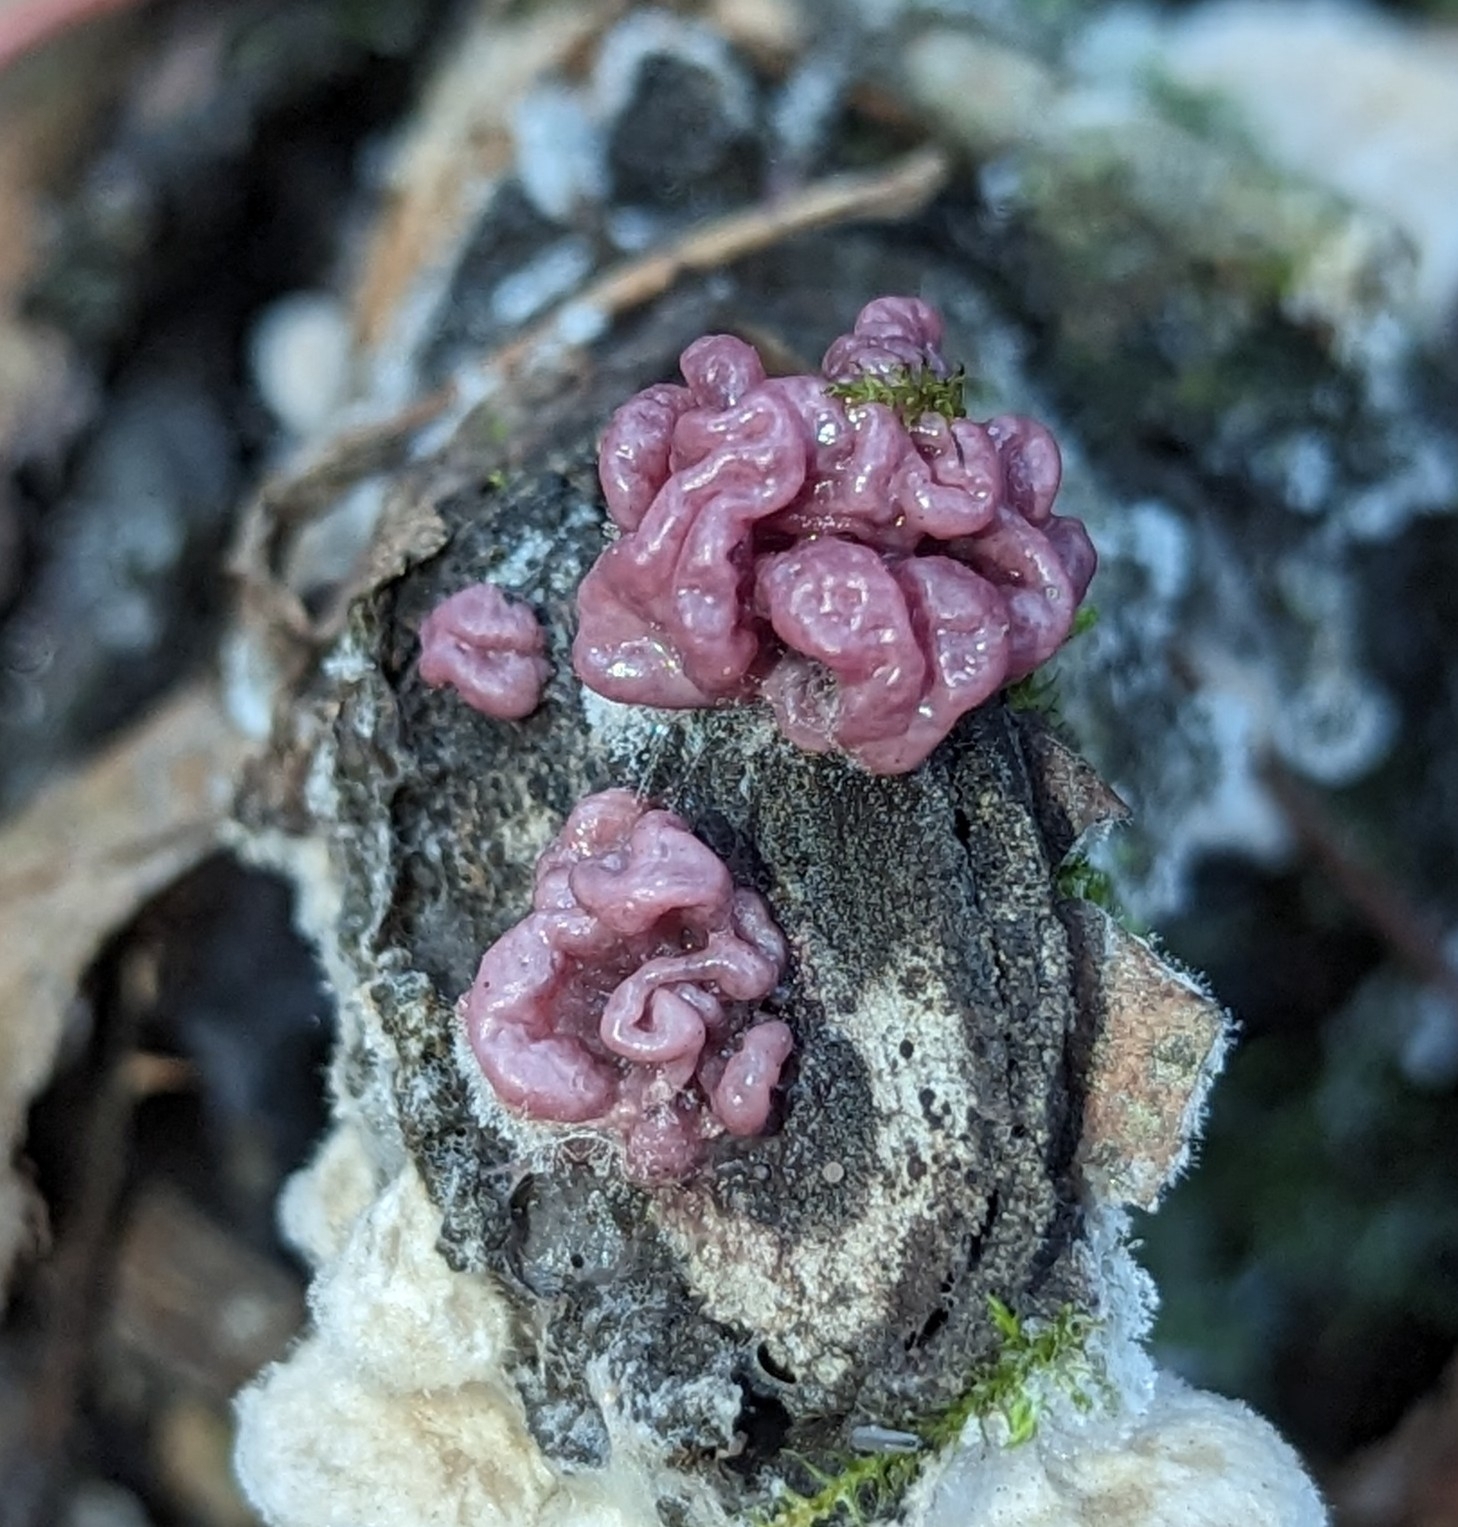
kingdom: Fungi
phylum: Ascomycota
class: Leotiomycetes
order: Helotiales
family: Gelatinodiscaceae
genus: Ascocoryne
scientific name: Ascocoryne sarcoides
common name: Purple jellydisc
